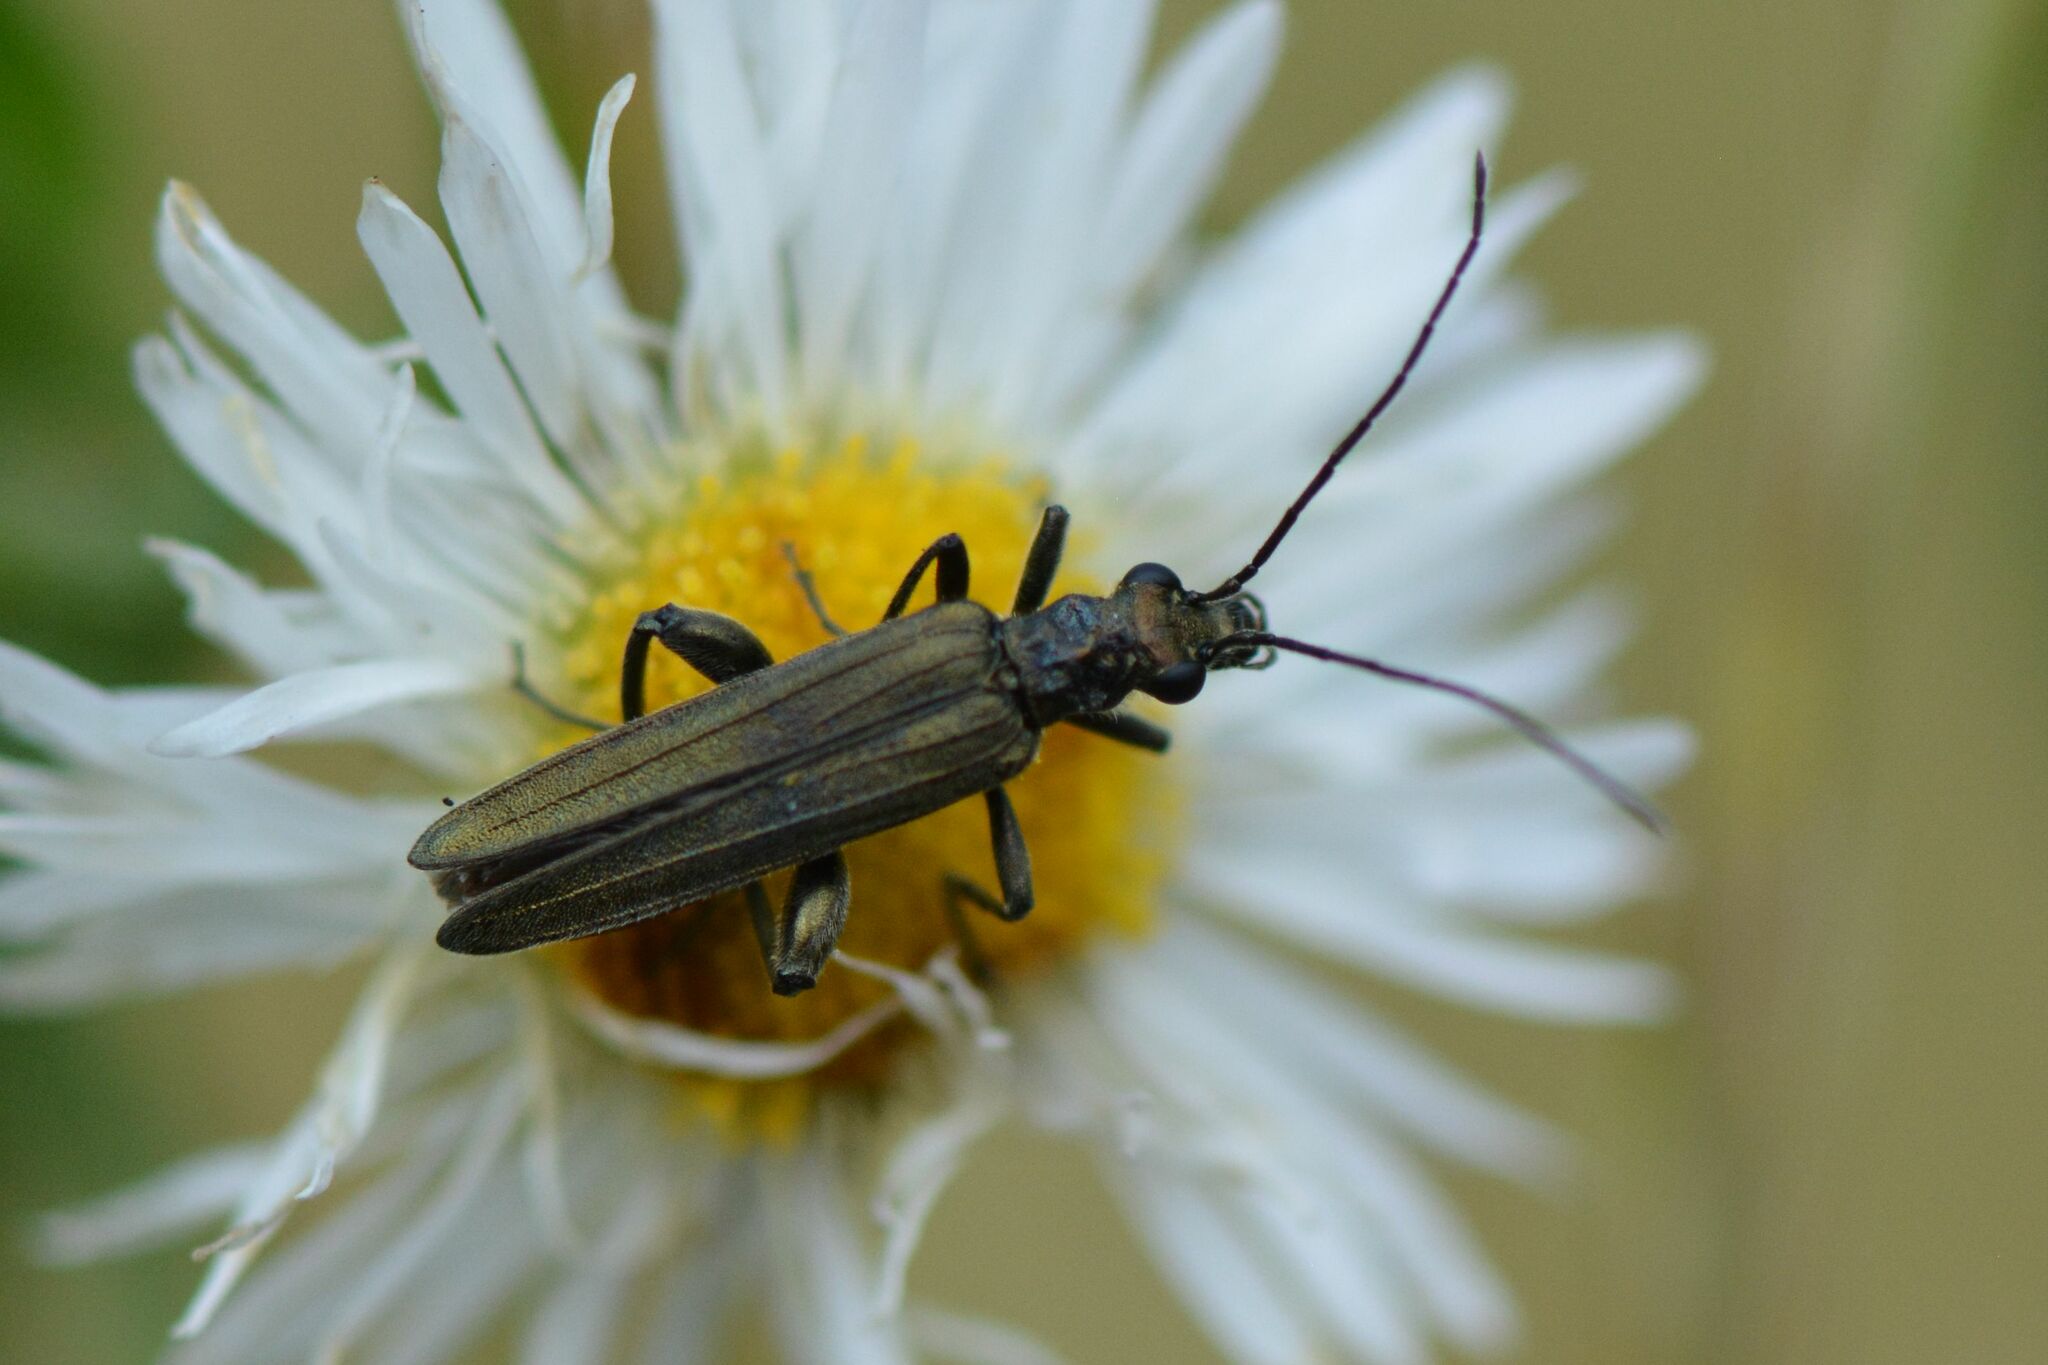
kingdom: Animalia
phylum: Arthropoda
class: Insecta
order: Coleoptera
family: Oedemeridae
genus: Oedemera
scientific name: Oedemera virescens
